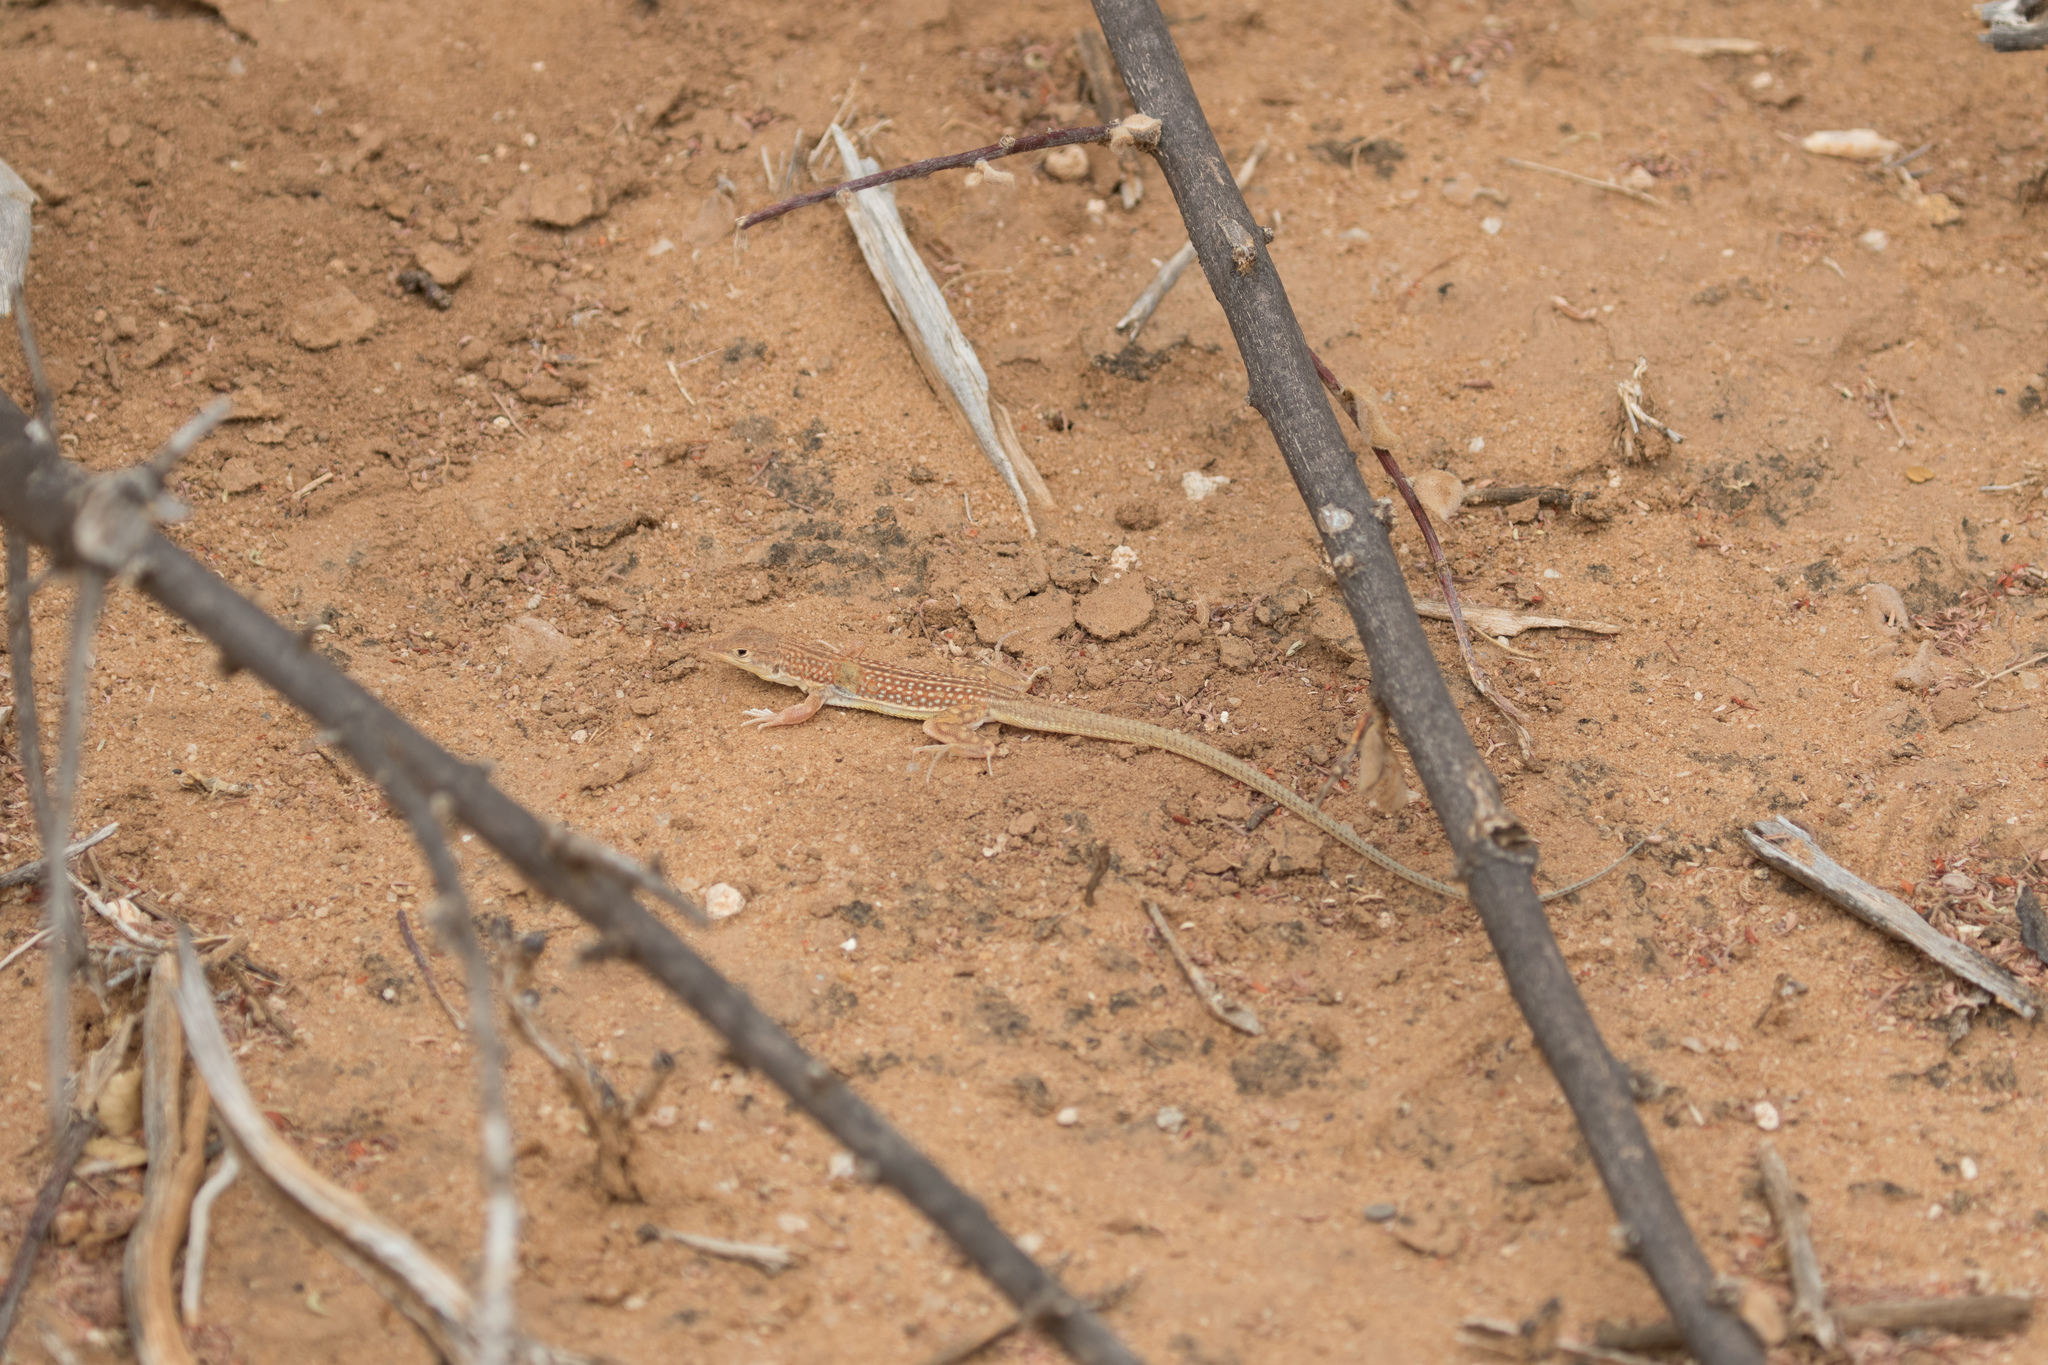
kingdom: Animalia
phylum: Chordata
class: Squamata
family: Lacertidae
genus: Pseuderemias
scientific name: Pseuderemias smithii
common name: Smith's racerunner
